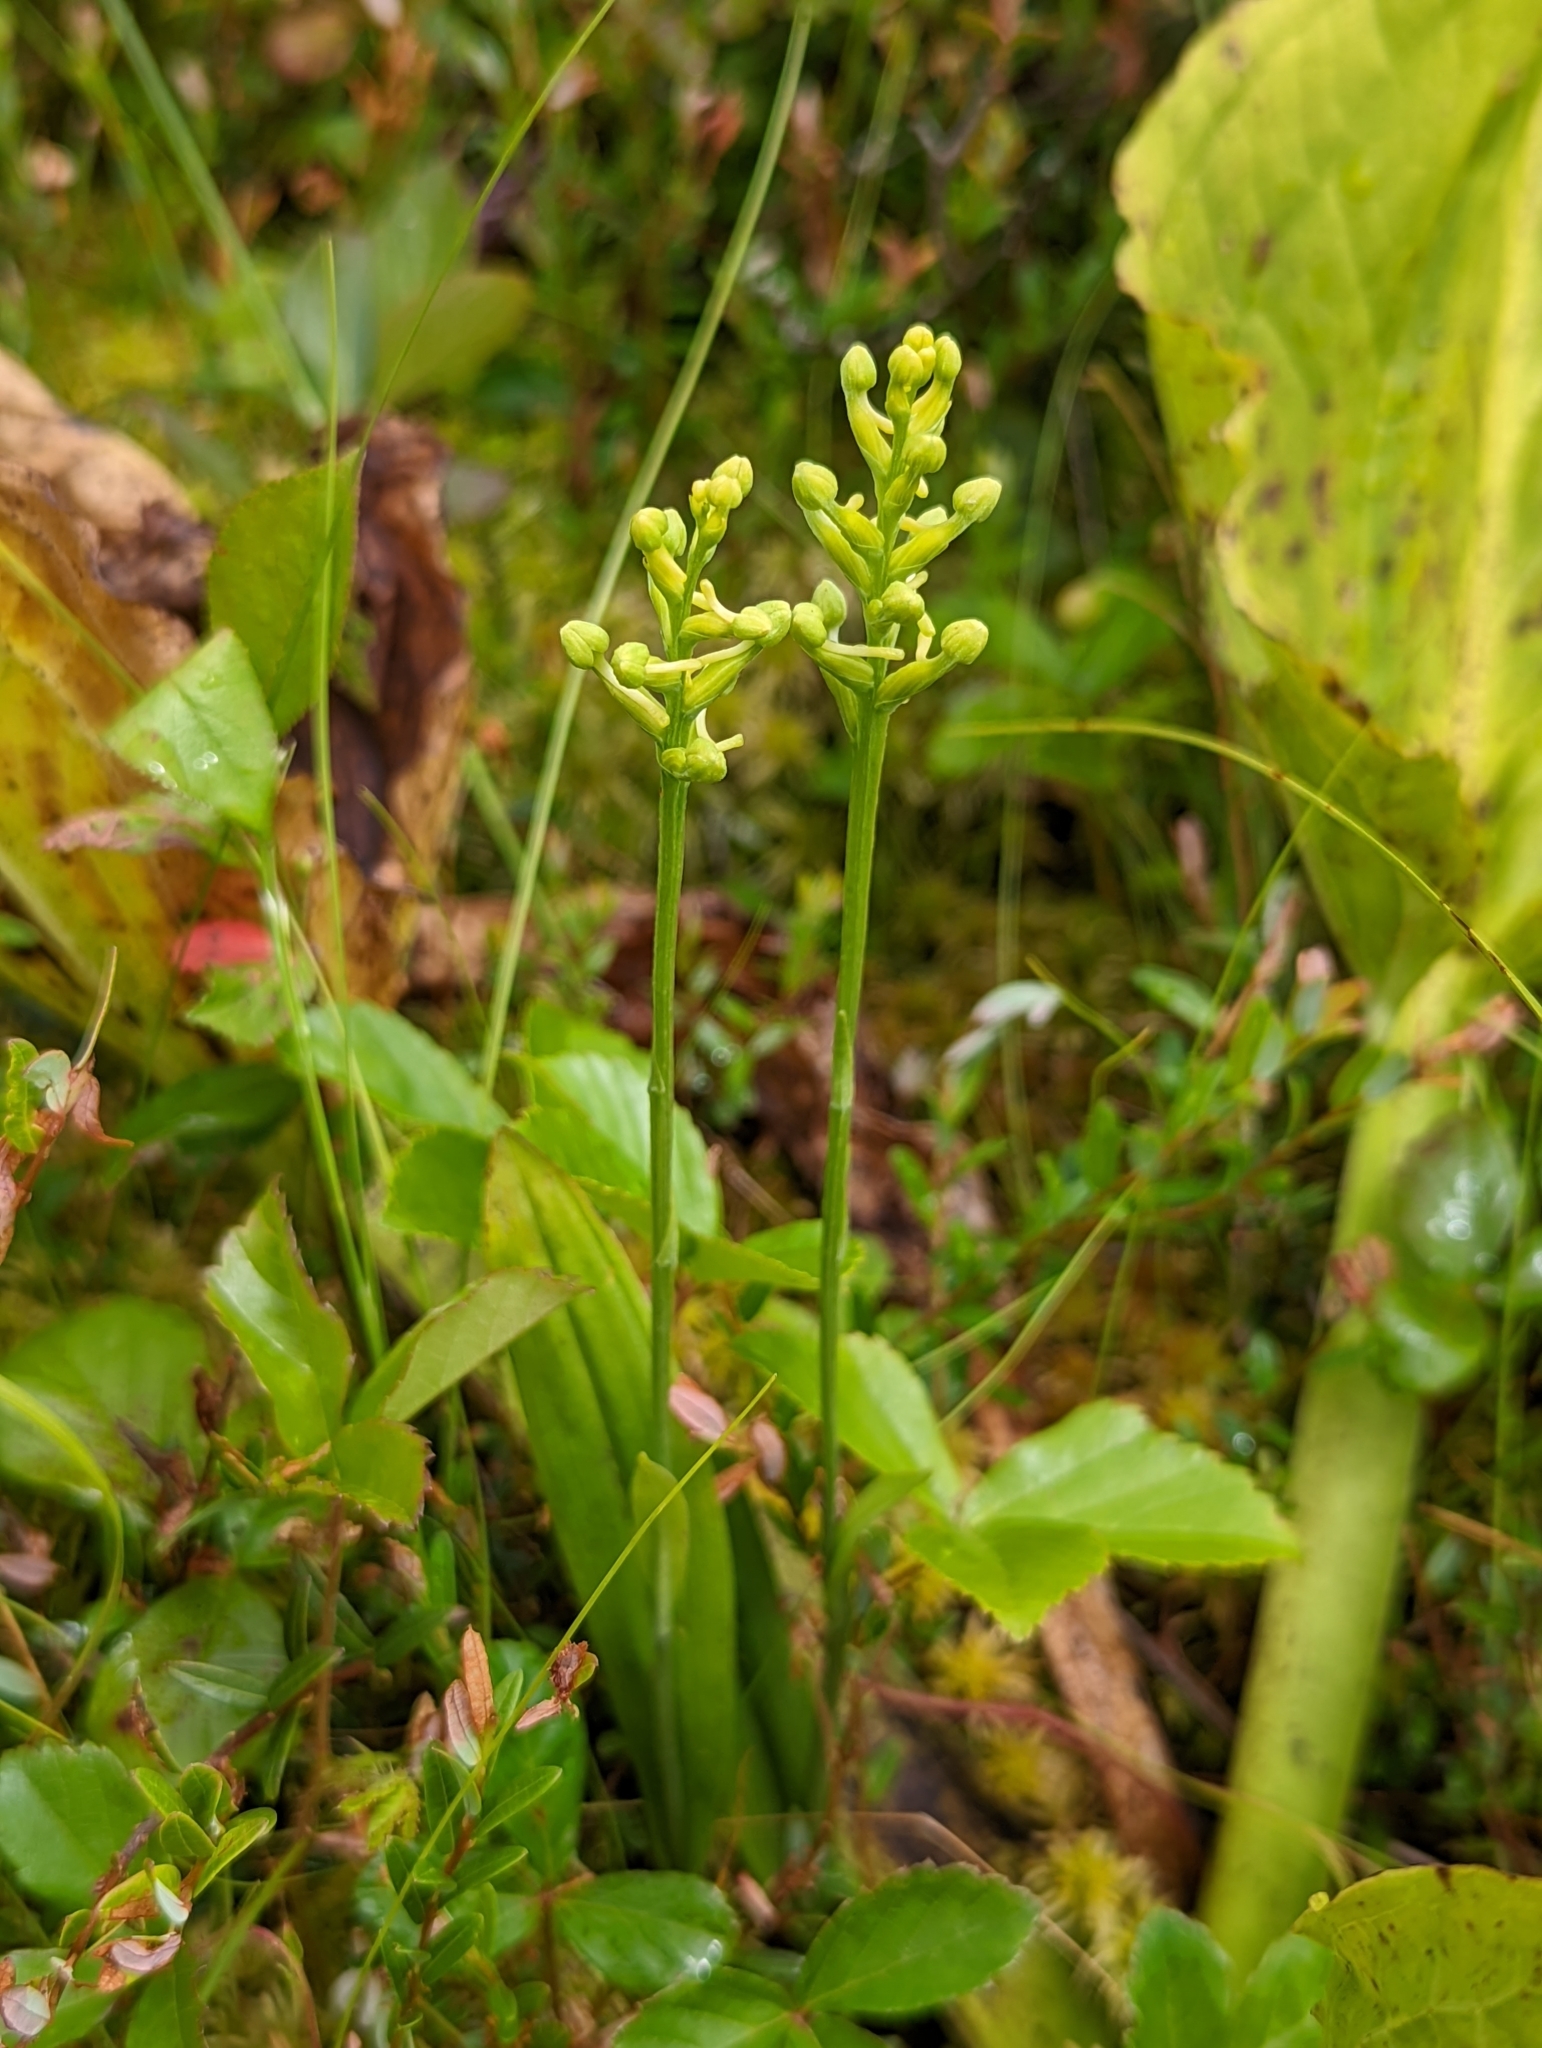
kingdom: Plantae
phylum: Tracheophyta
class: Liliopsida
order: Asparagales
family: Orchidaceae
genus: Platanthera
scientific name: Platanthera clavellata
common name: Club-spur orchid
